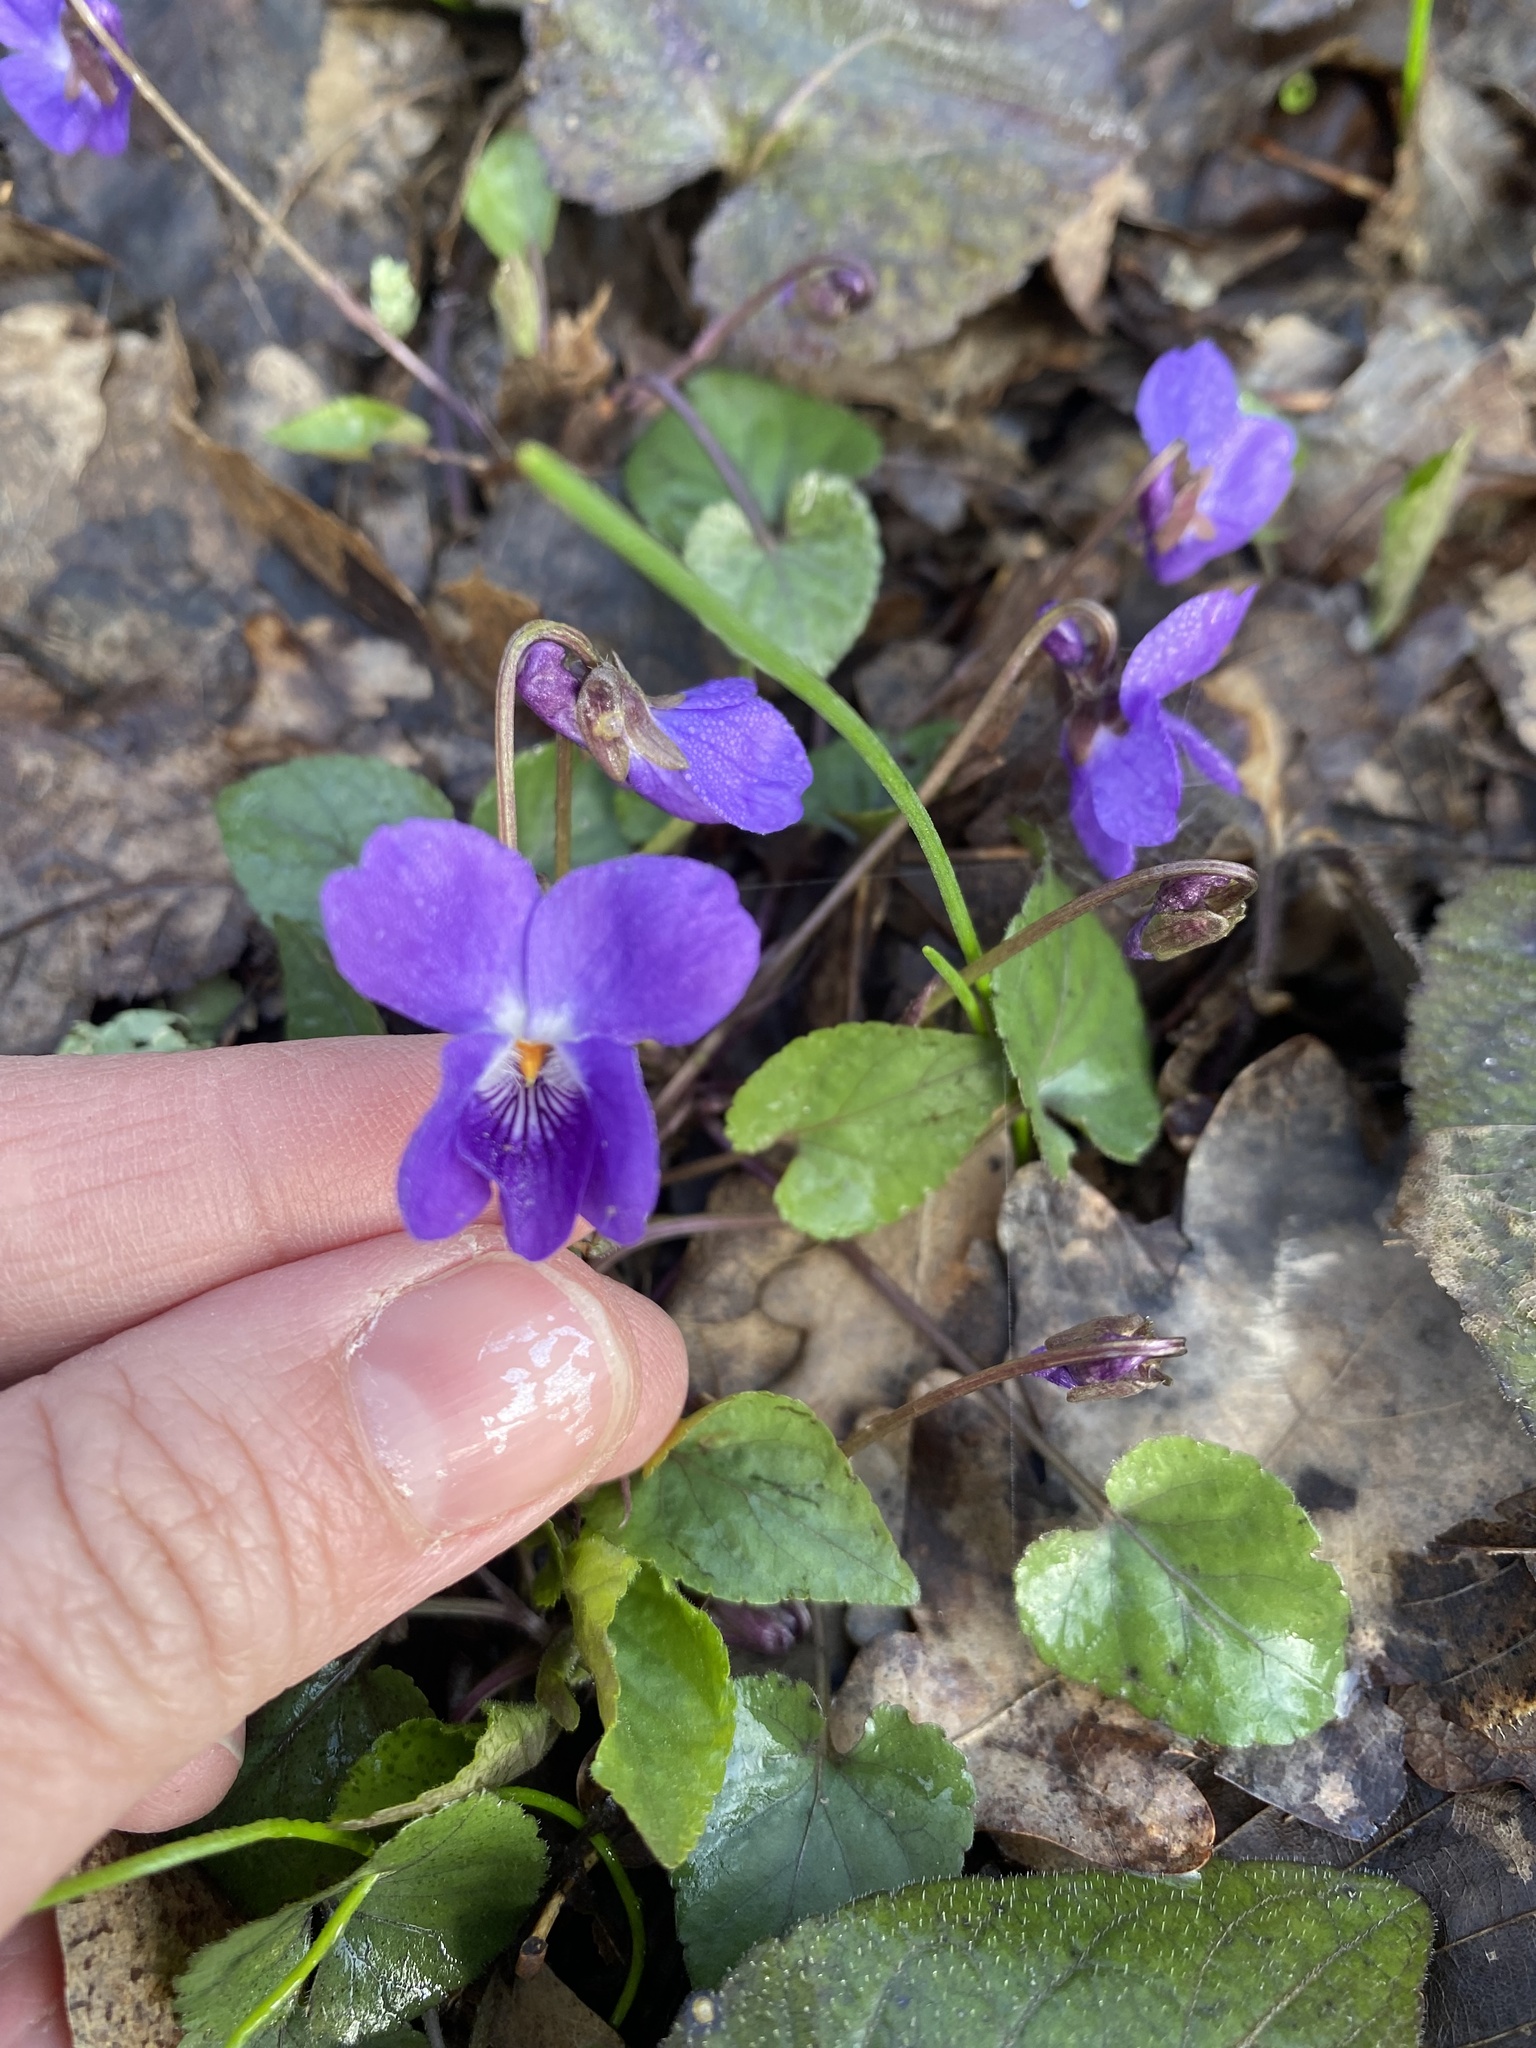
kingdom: Plantae
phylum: Tracheophyta
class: Magnoliopsida
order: Malpighiales
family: Violaceae
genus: Viola
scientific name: Viola alba
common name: White violet
